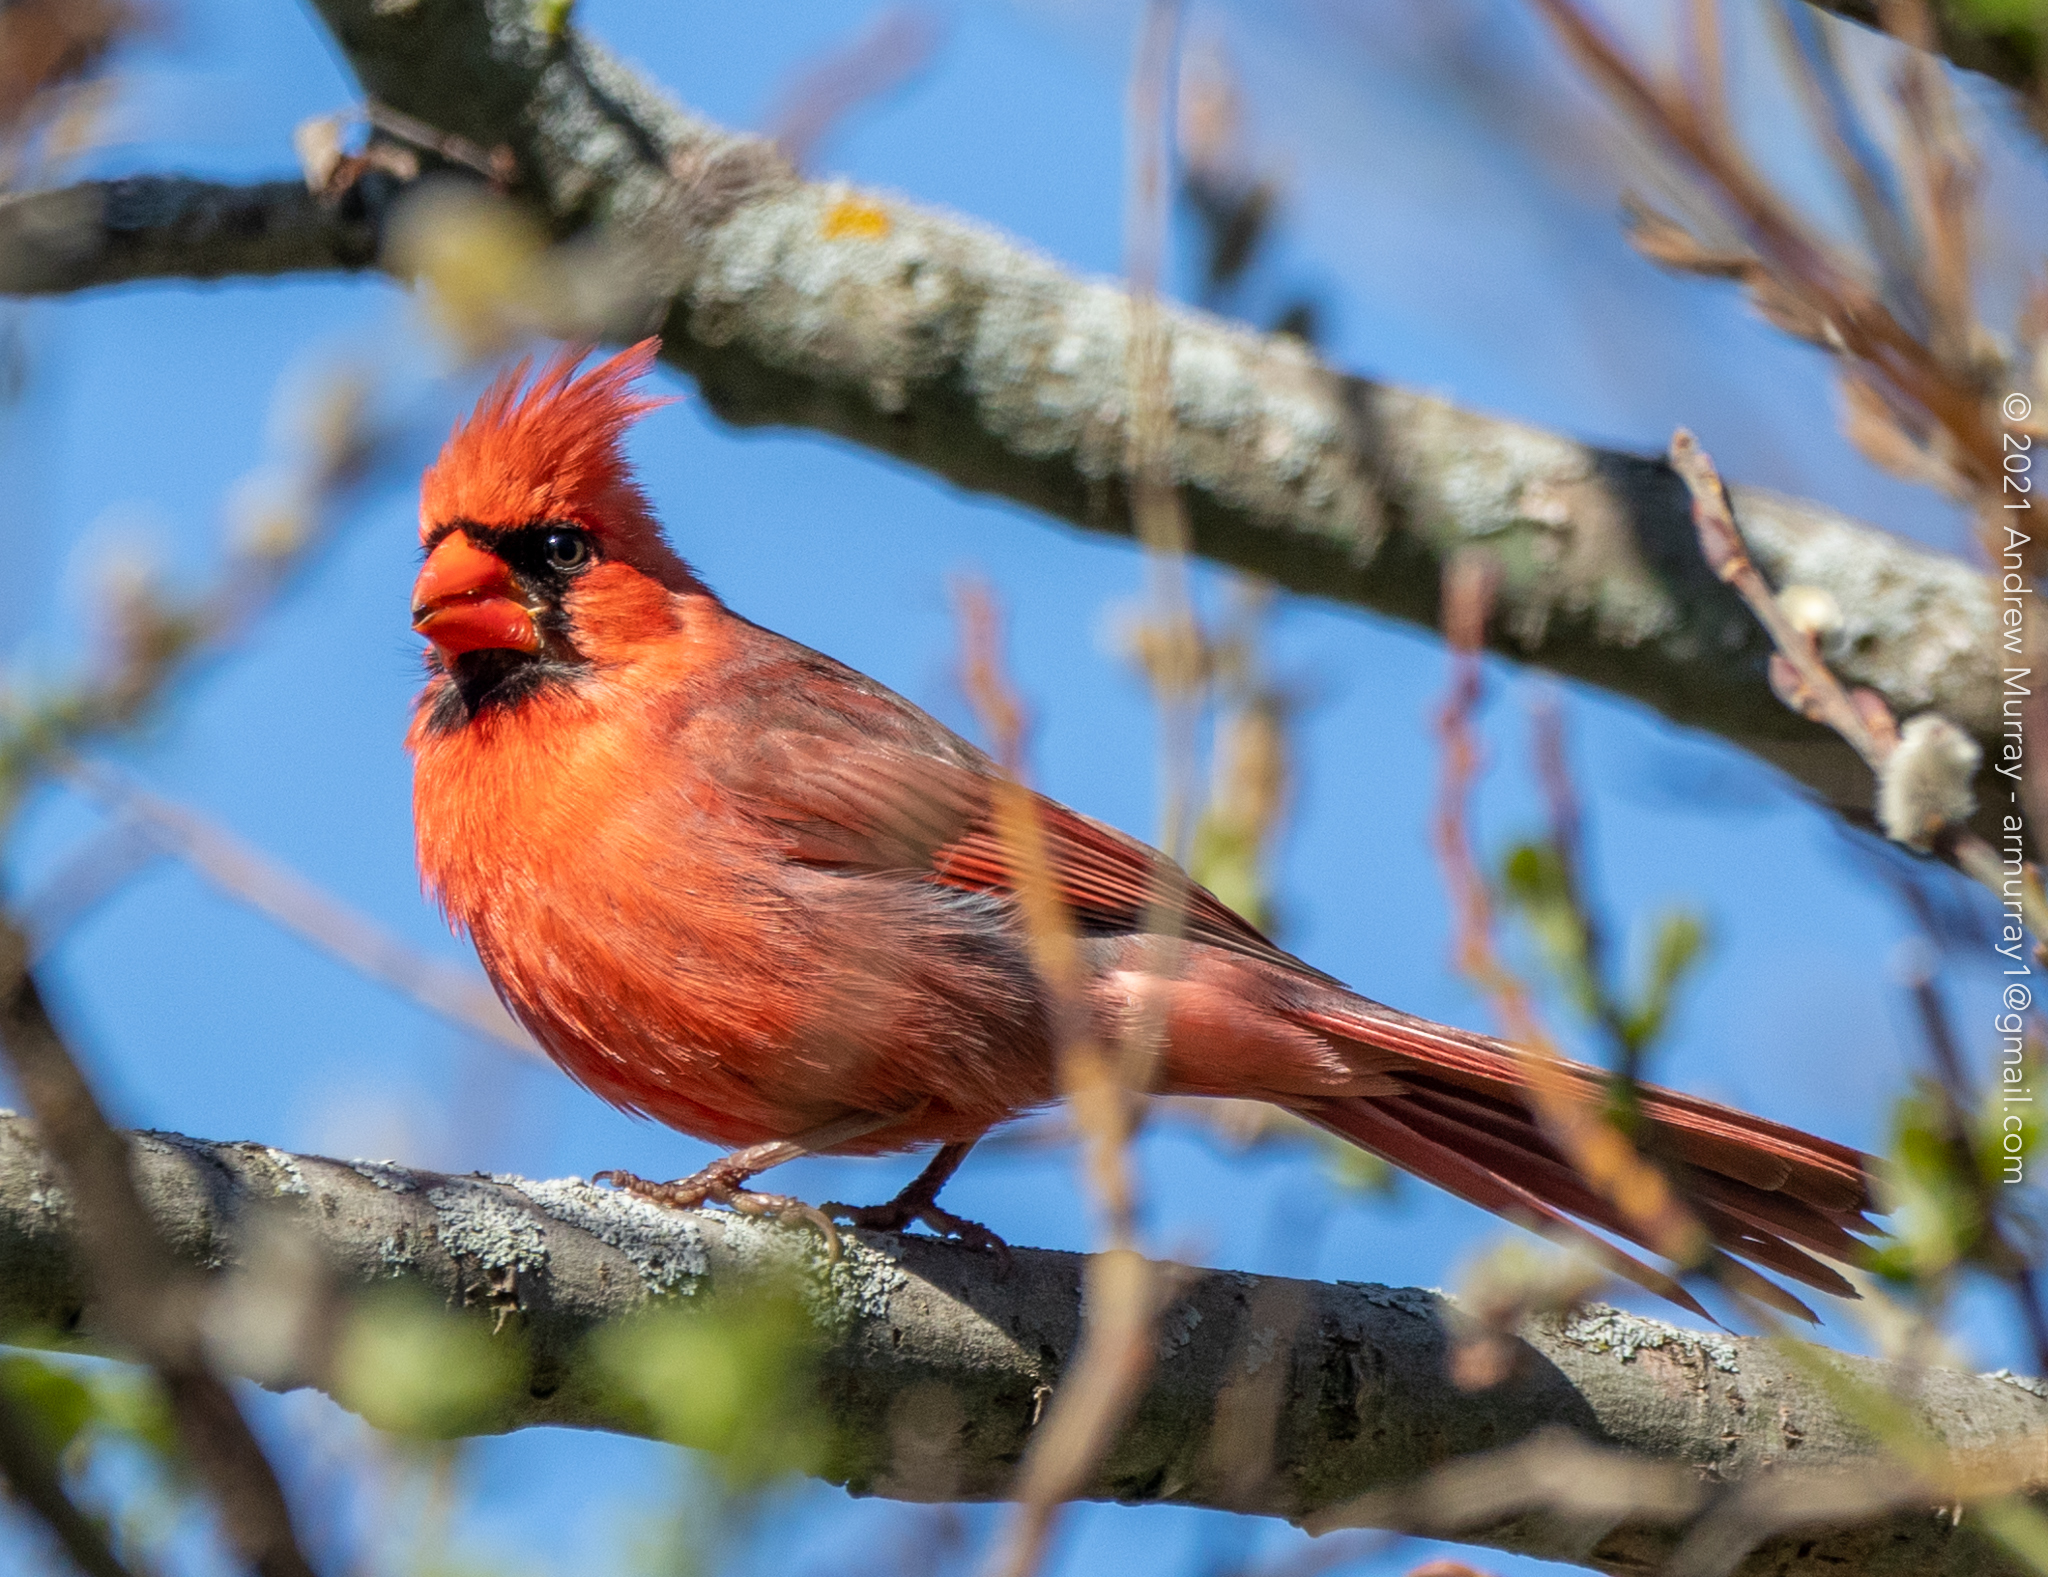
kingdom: Animalia
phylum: Chordata
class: Aves
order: Passeriformes
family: Cardinalidae
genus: Cardinalis
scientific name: Cardinalis cardinalis
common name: Northern cardinal
